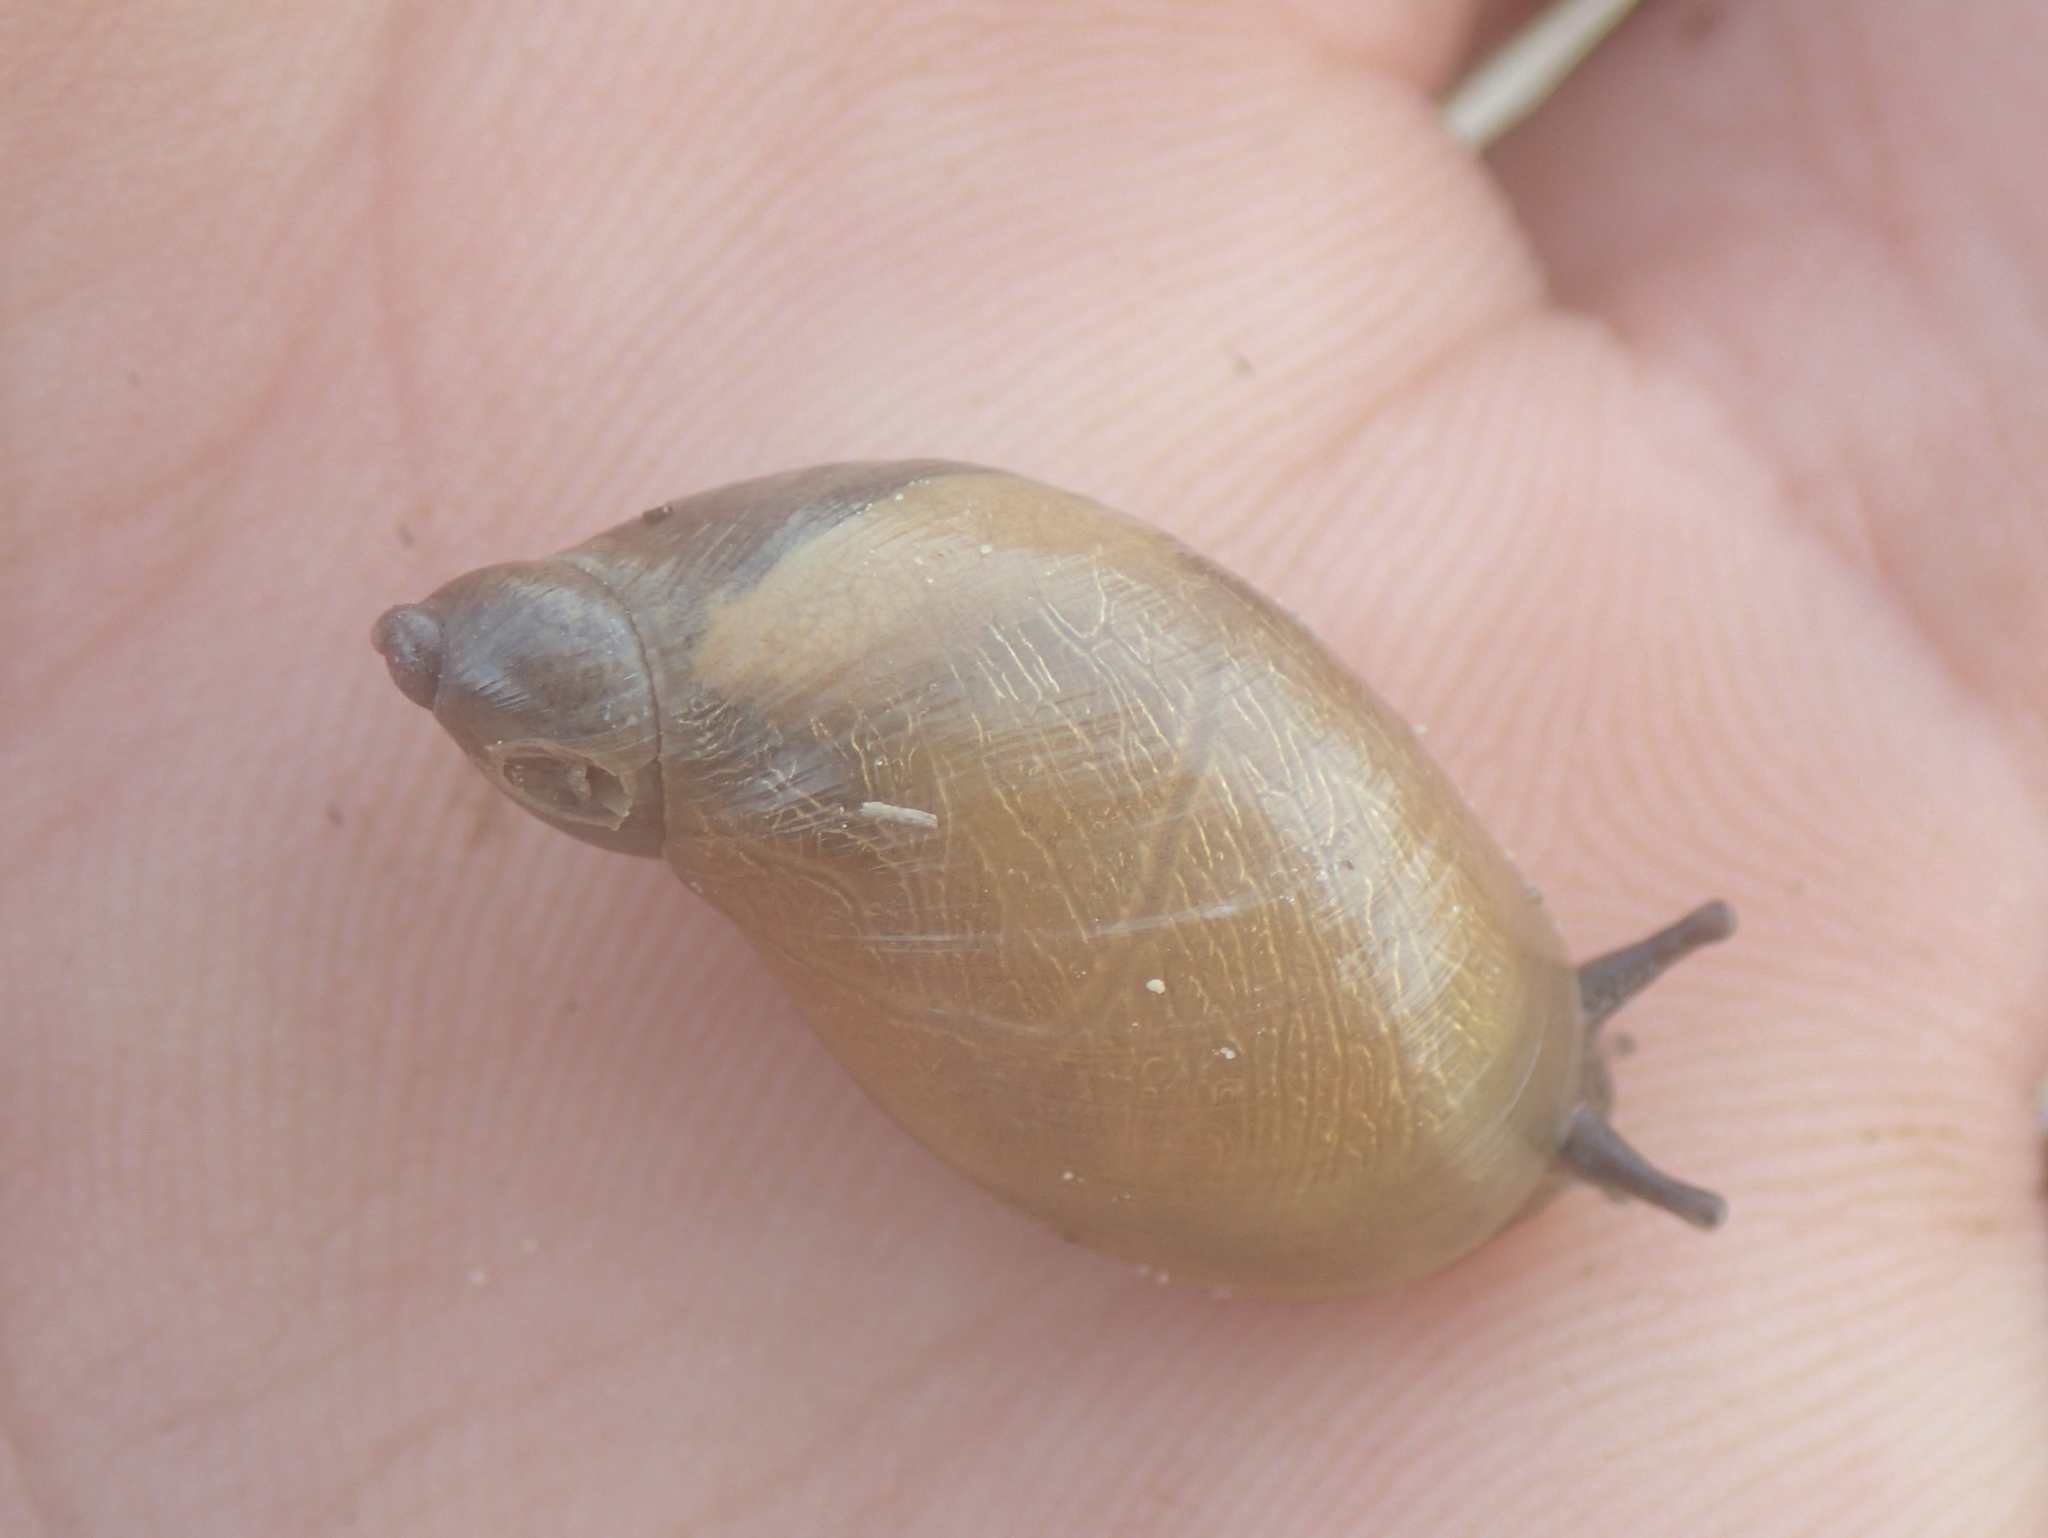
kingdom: Animalia
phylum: Mollusca
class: Gastropoda
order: Stylommatophora
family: Succineidae
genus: Succinea
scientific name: Succinea putris
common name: European ambersnail
